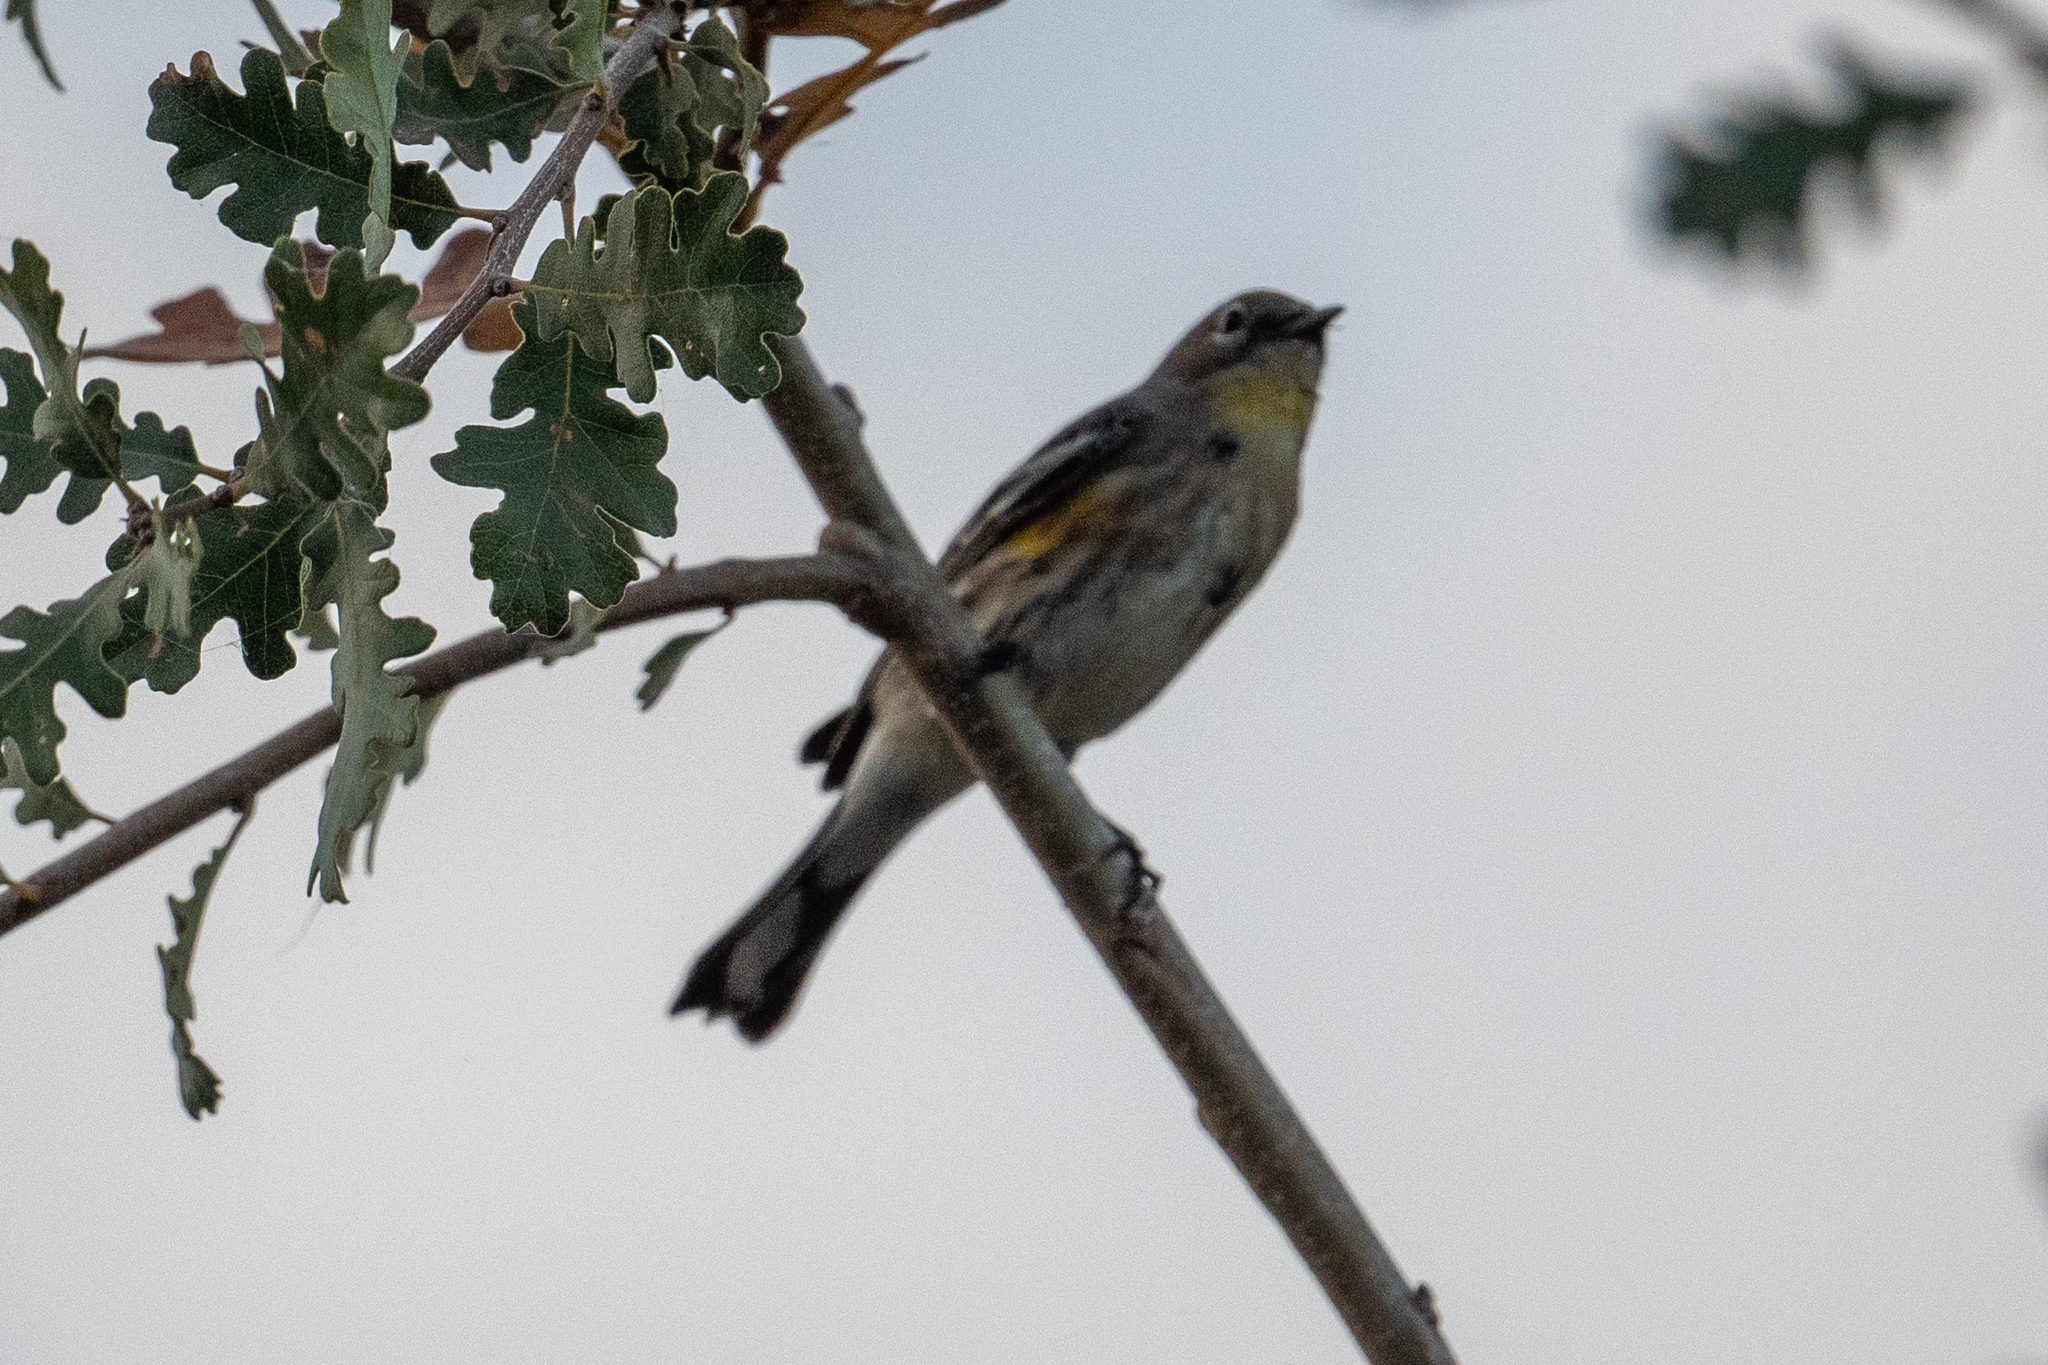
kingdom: Animalia
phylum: Chordata
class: Aves
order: Passeriformes
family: Parulidae
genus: Setophaga
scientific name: Setophaga coronata
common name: Myrtle warbler
